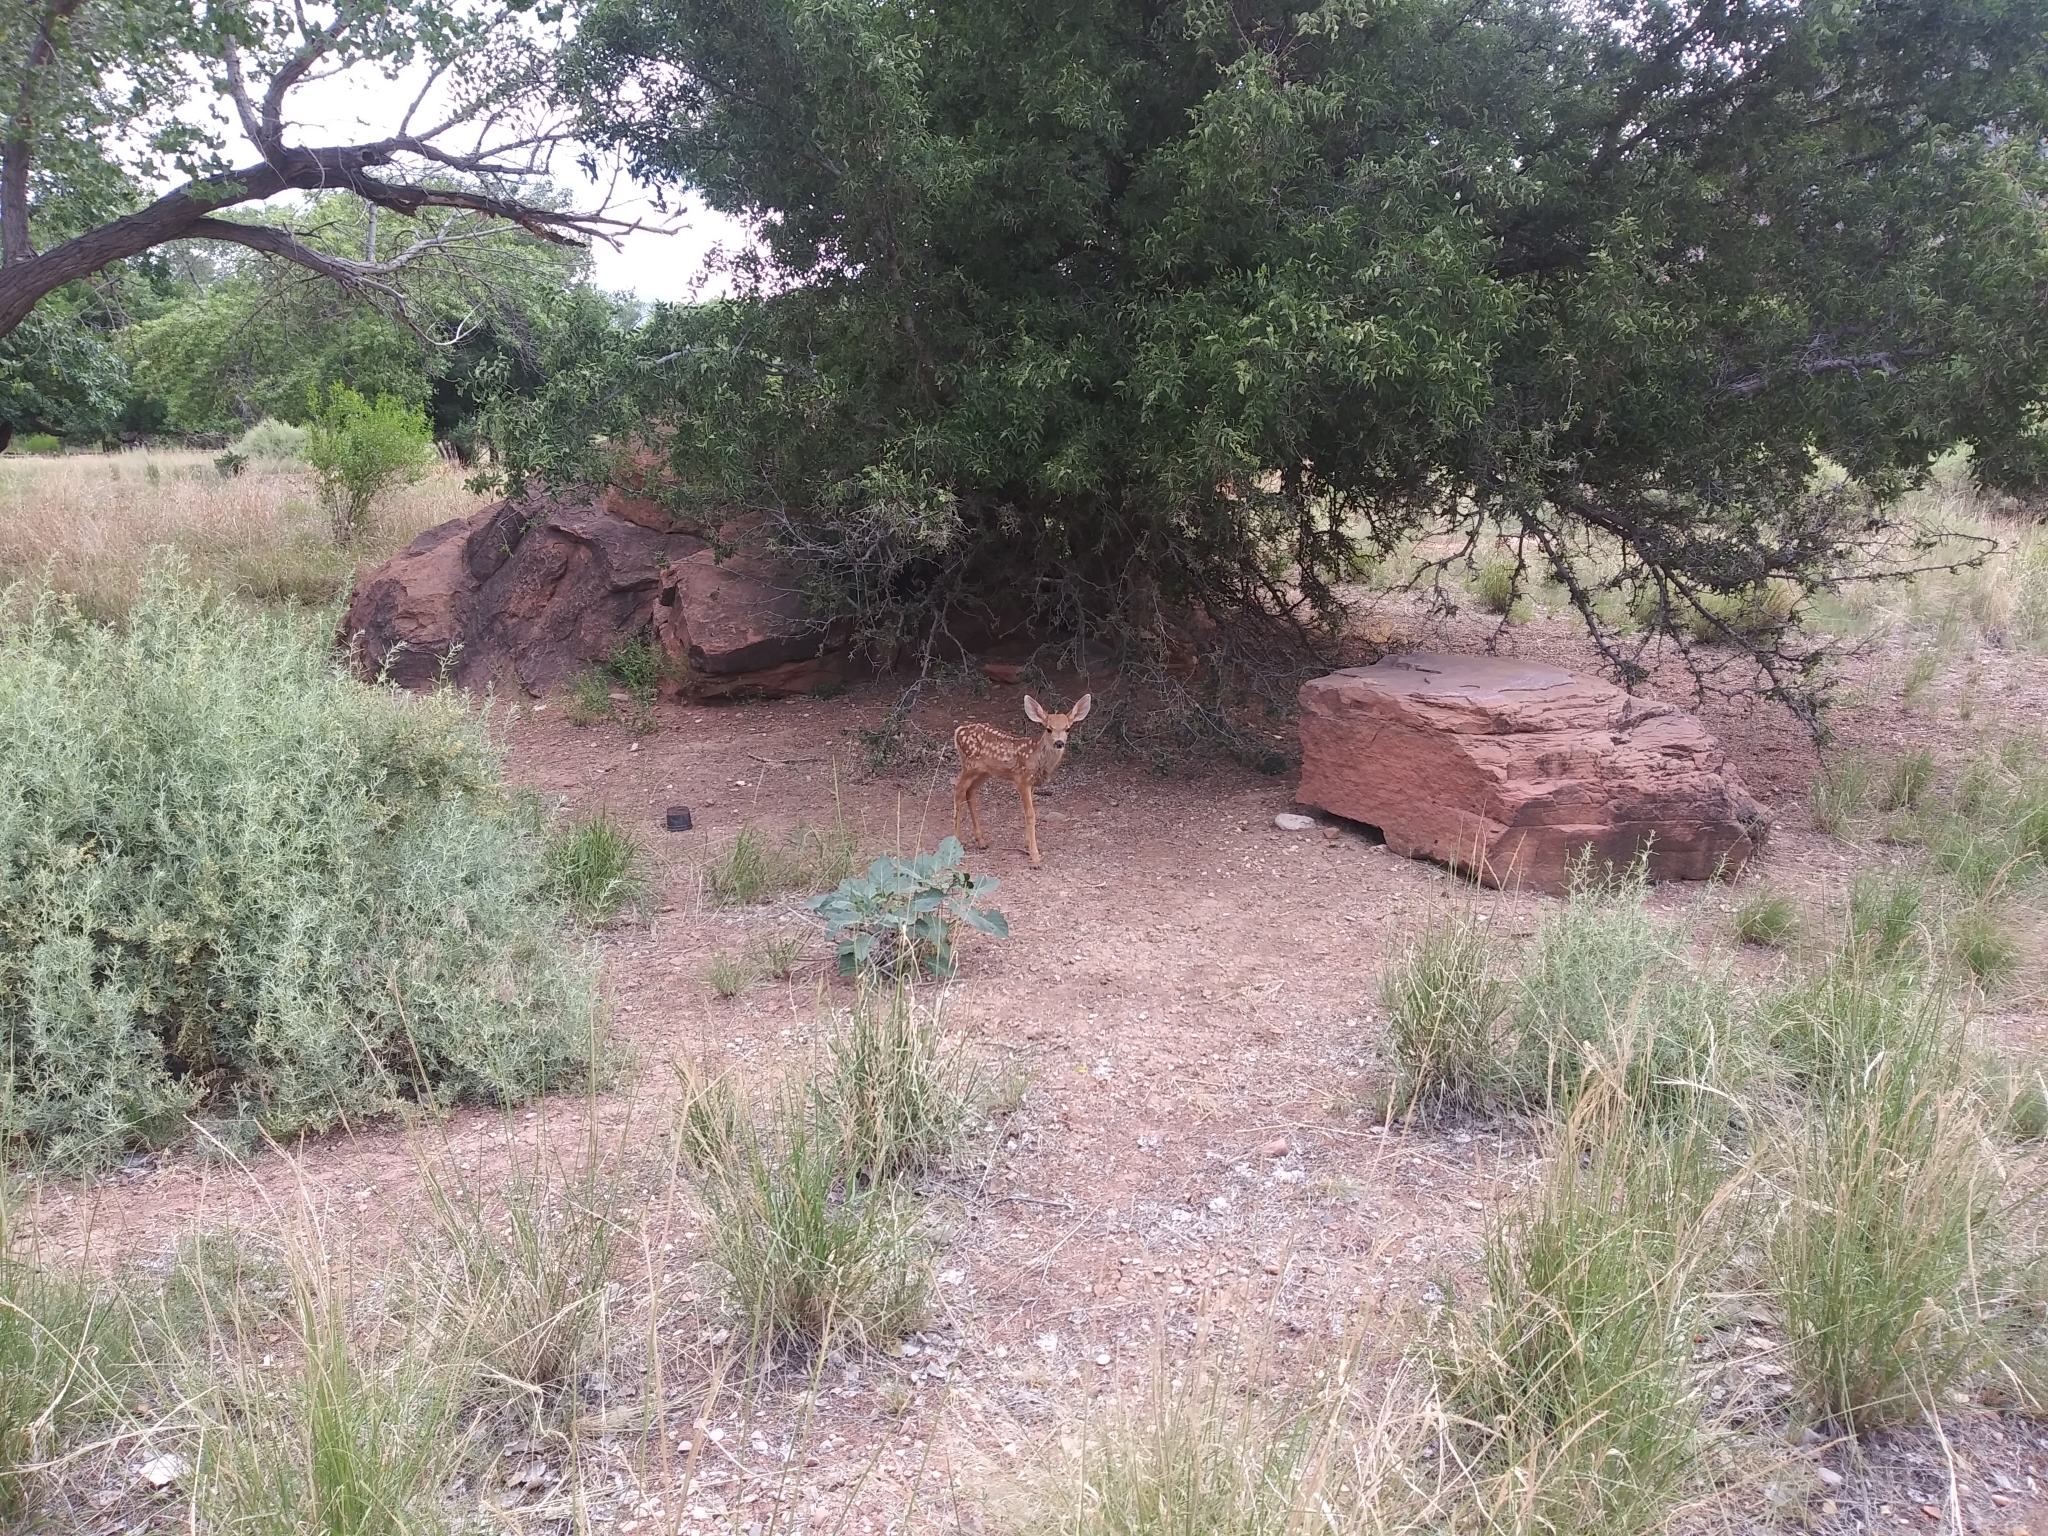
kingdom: Animalia
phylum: Chordata
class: Mammalia
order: Artiodactyla
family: Cervidae
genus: Odocoileus
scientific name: Odocoileus hemionus
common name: Mule deer
